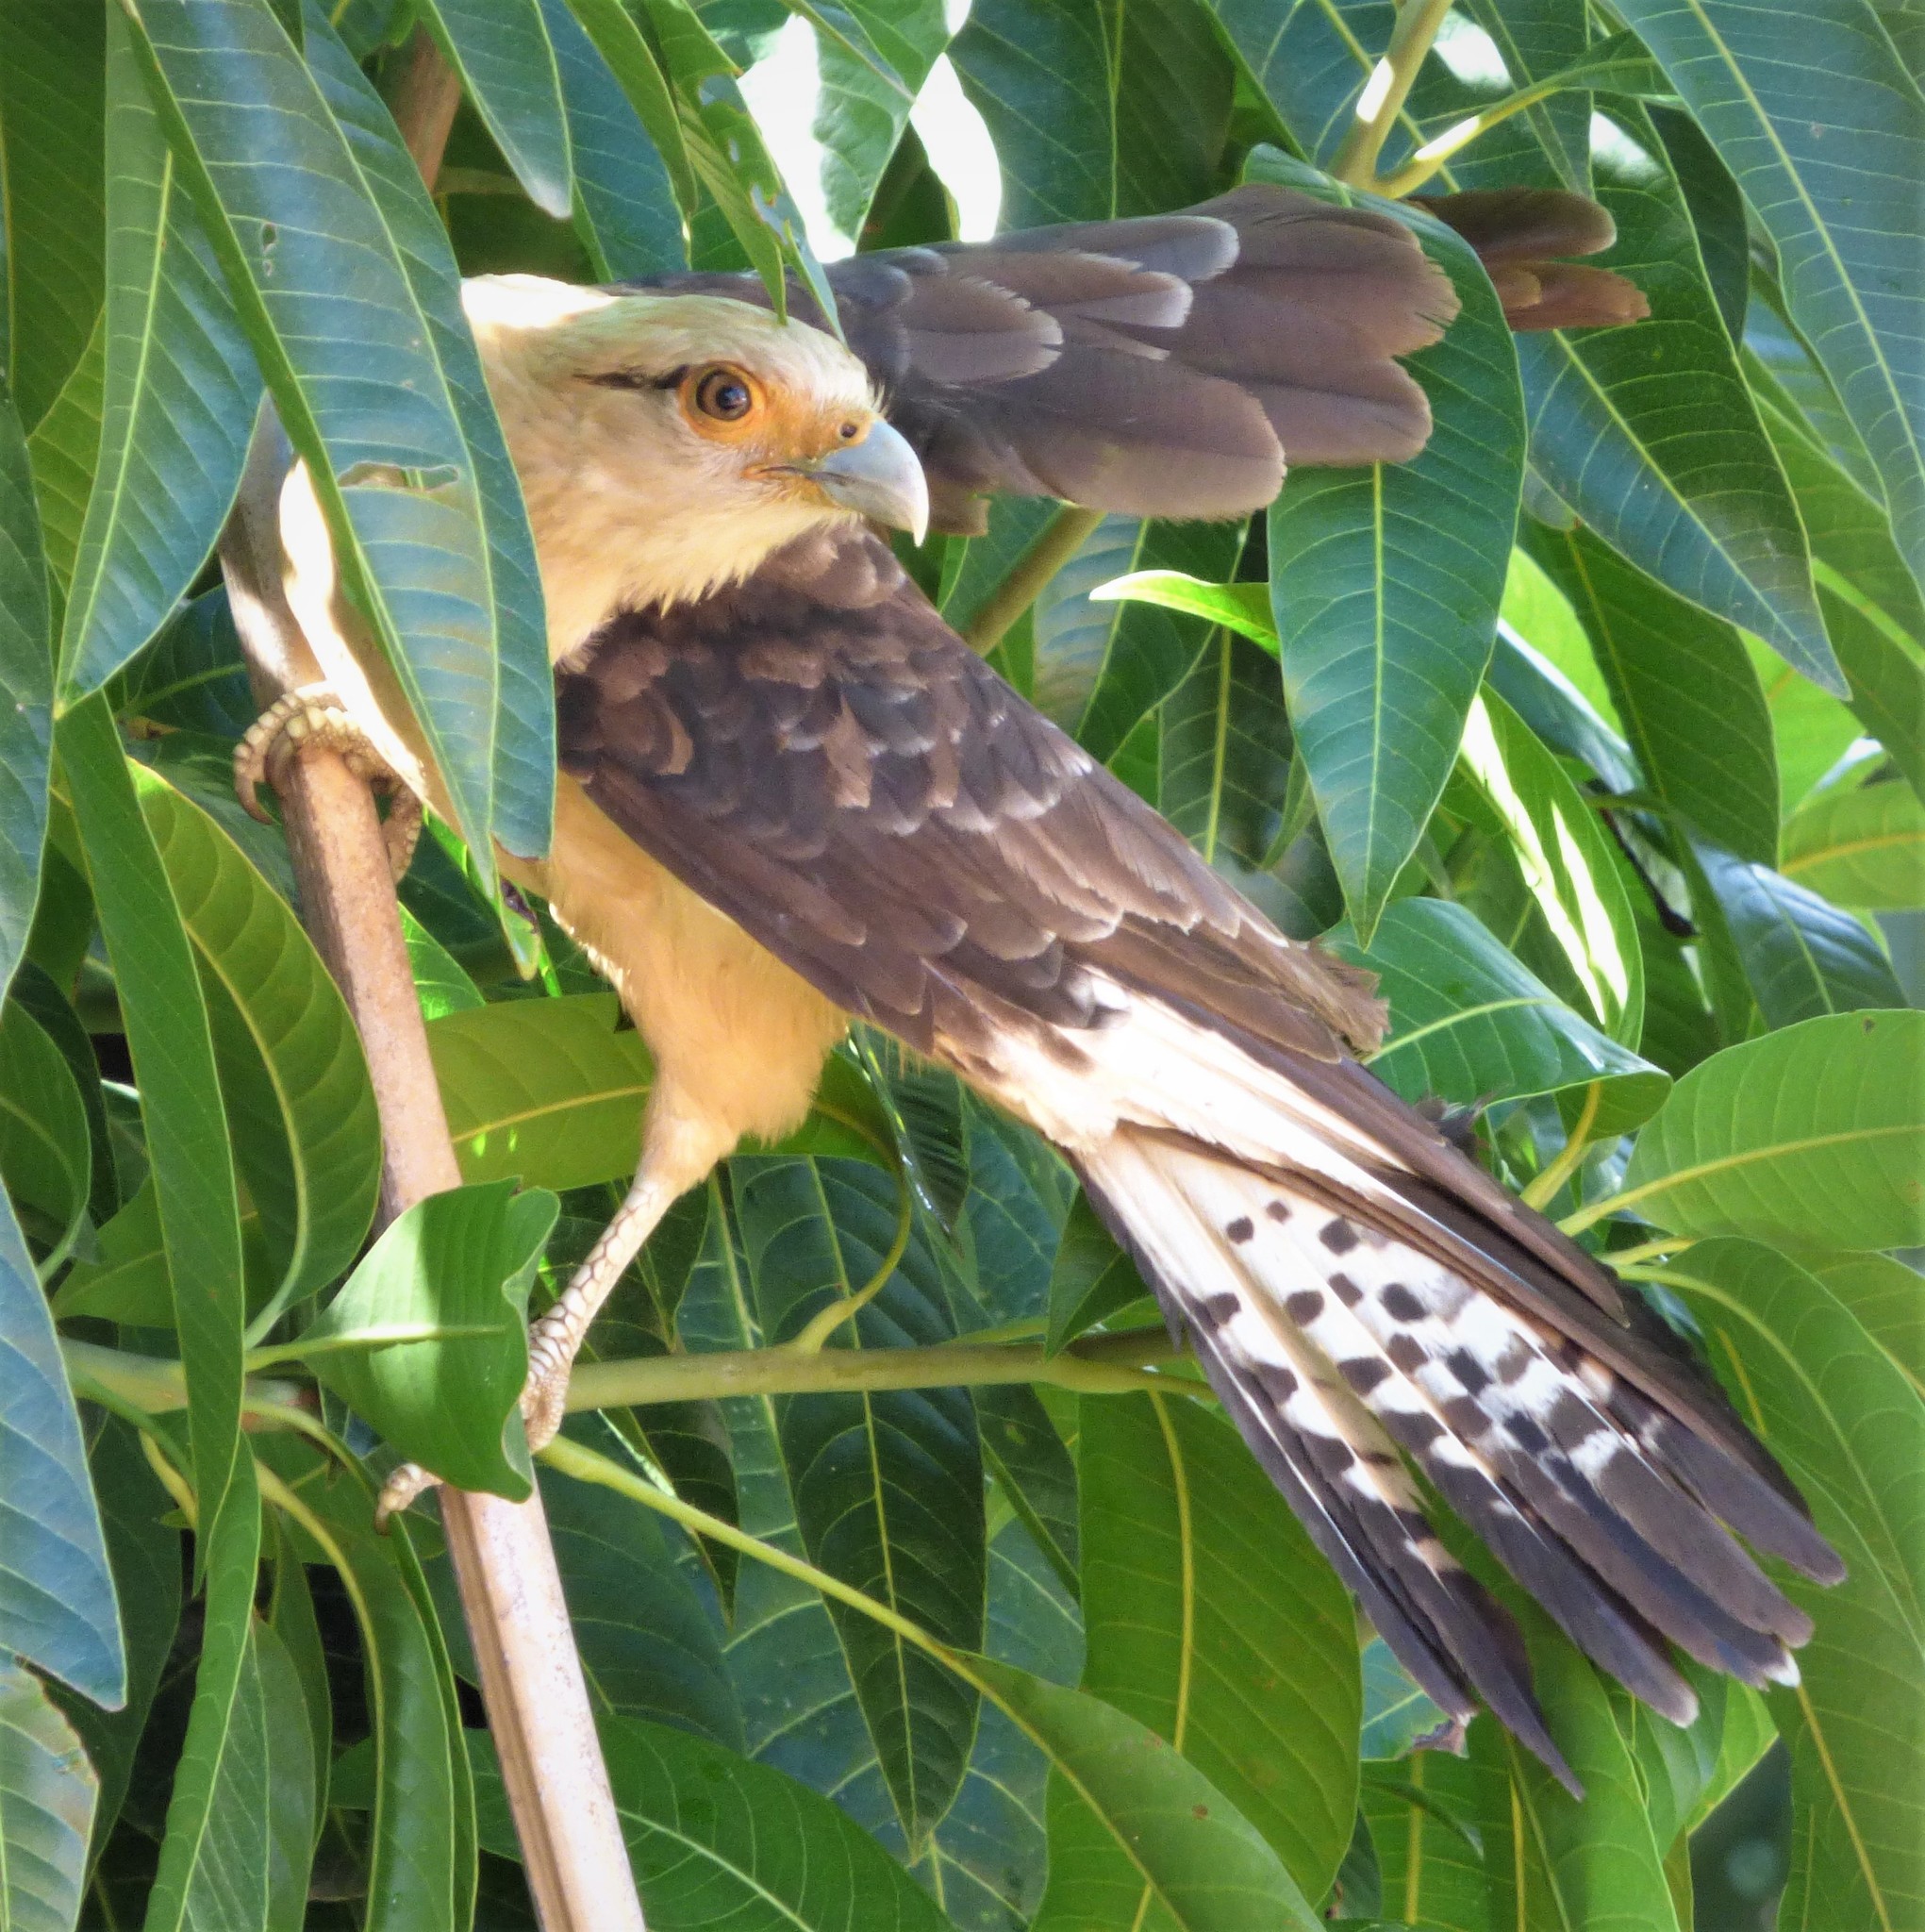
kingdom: Animalia
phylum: Chordata
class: Aves
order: Falconiformes
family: Falconidae
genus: Daptrius
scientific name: Daptrius
